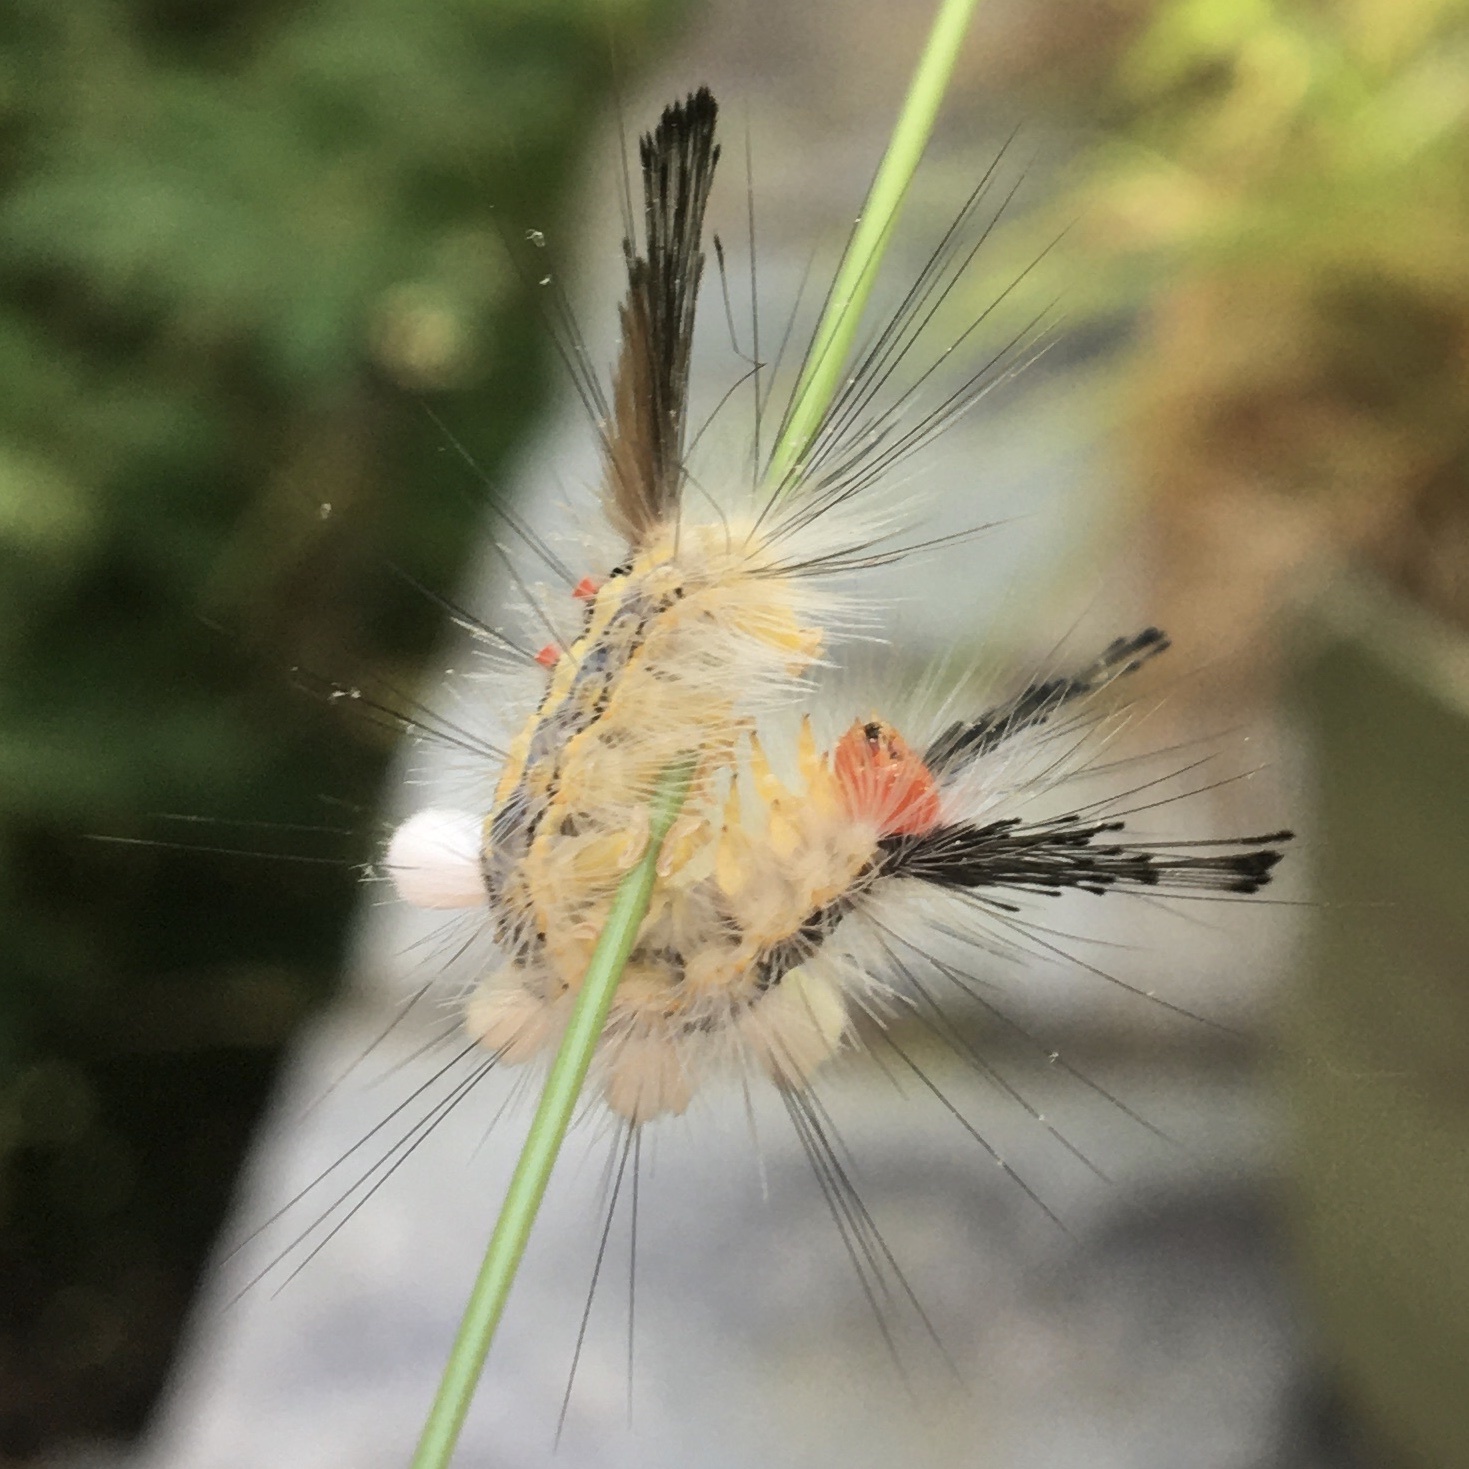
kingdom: Animalia
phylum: Arthropoda
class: Insecta
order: Lepidoptera
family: Erebidae
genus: Orgyia
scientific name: Orgyia leucostigma
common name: White-marked tussock moth
